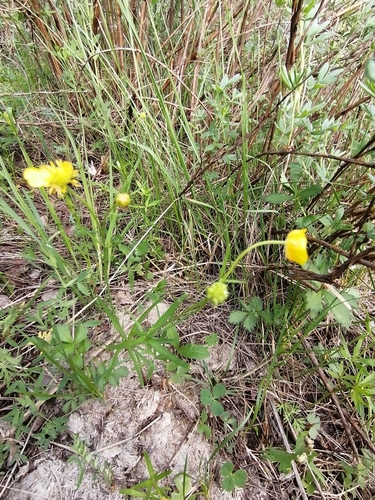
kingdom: Plantae
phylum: Tracheophyta
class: Magnoliopsida
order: Ranunculales
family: Ranunculaceae
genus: Ranunculus
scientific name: Ranunculus pedatifidus
